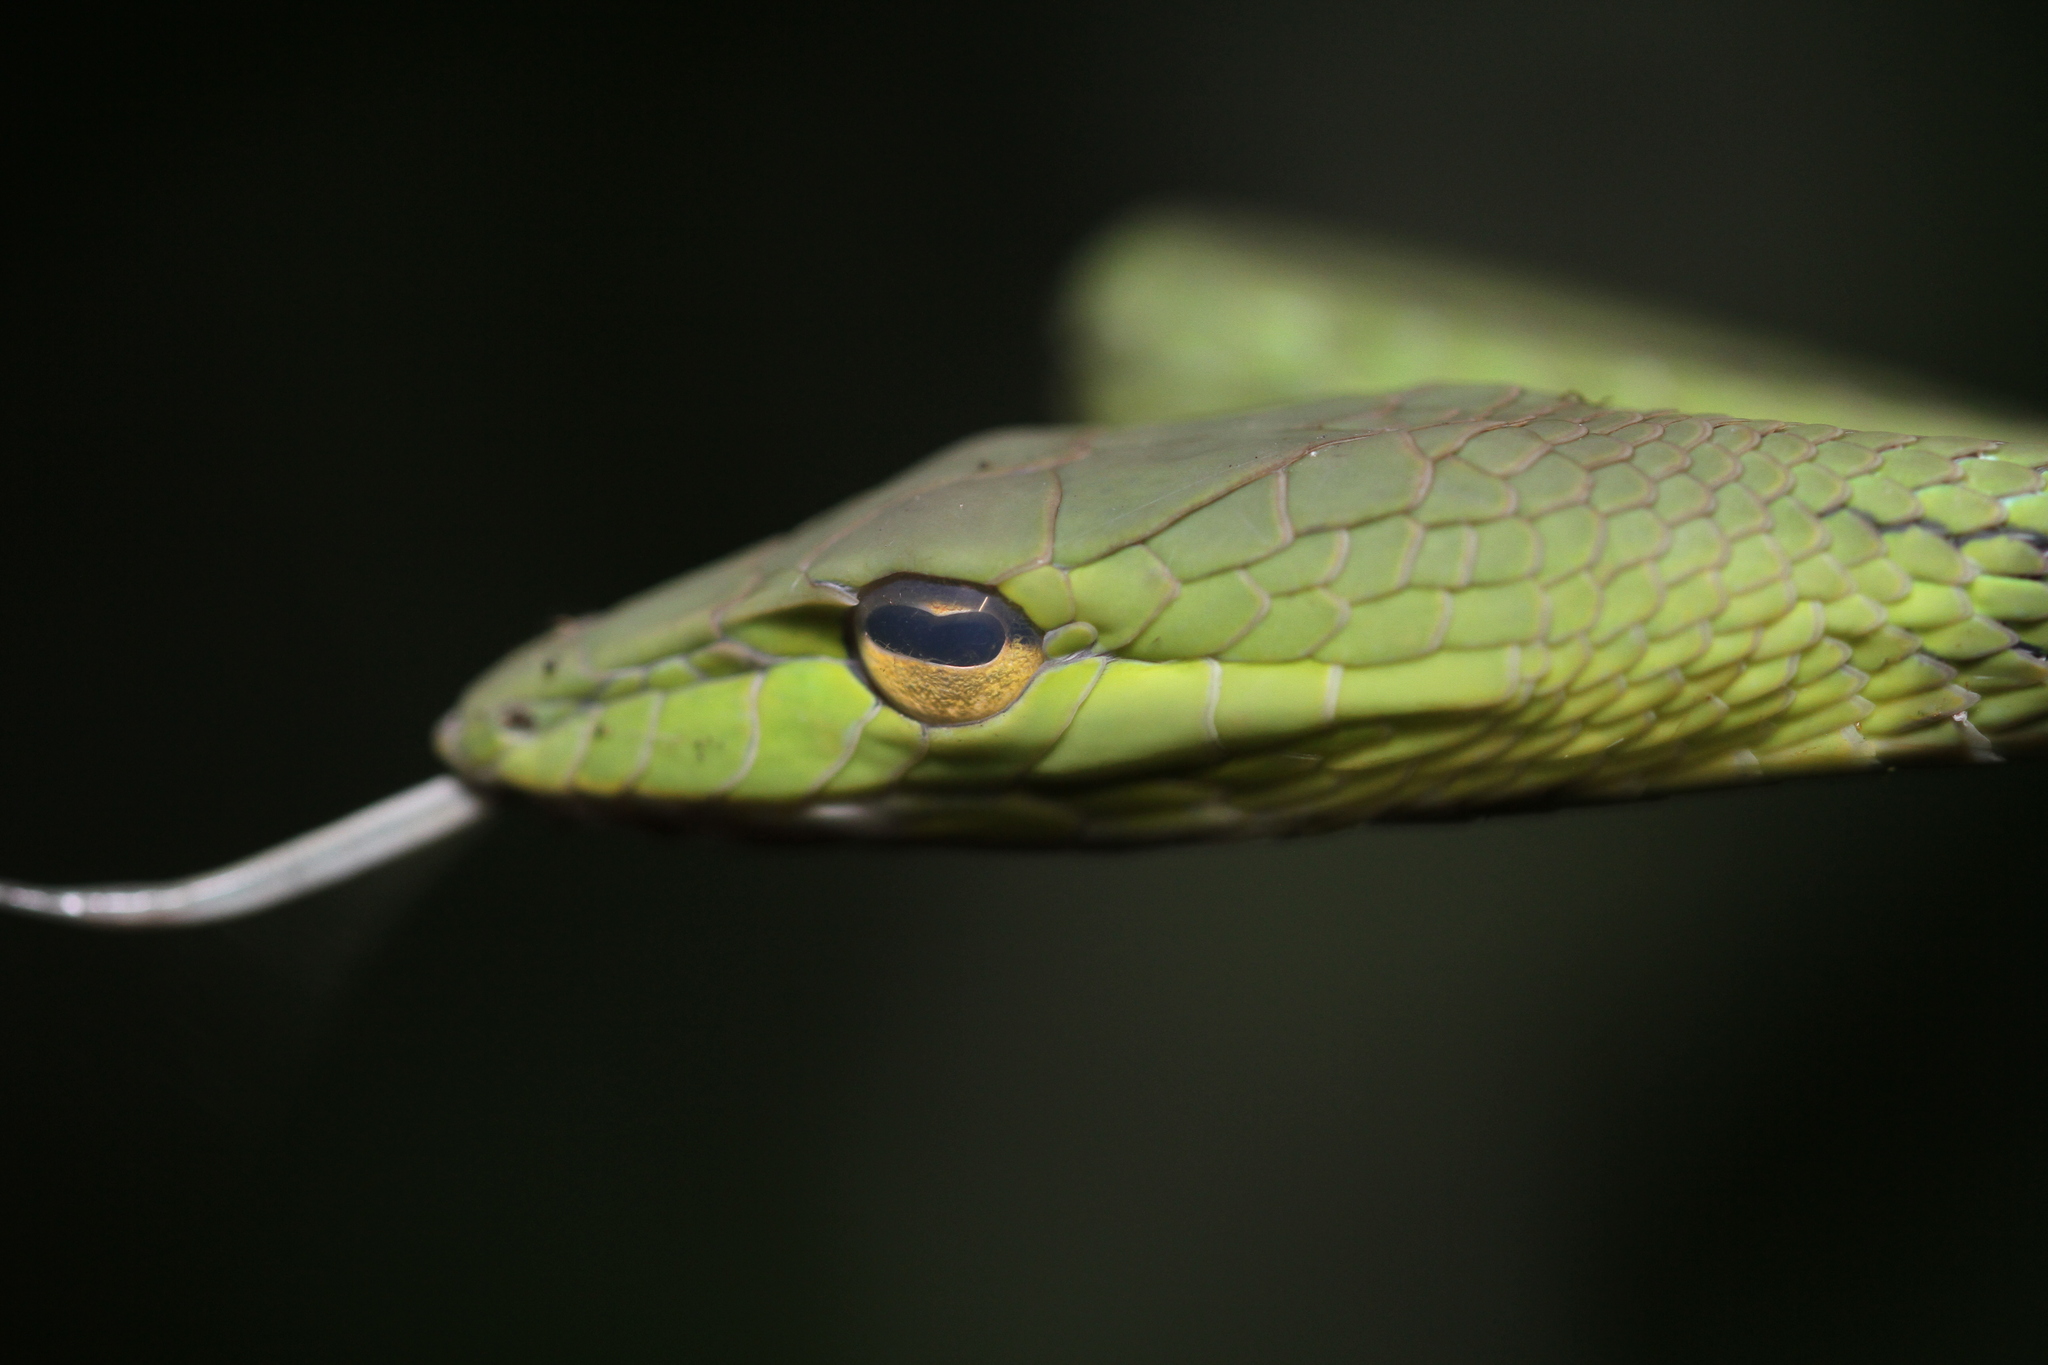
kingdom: Animalia
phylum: Chordata
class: Squamata
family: Colubridae
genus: Ahaetulla
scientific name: Ahaetulla prasina
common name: Oriental whip snake
